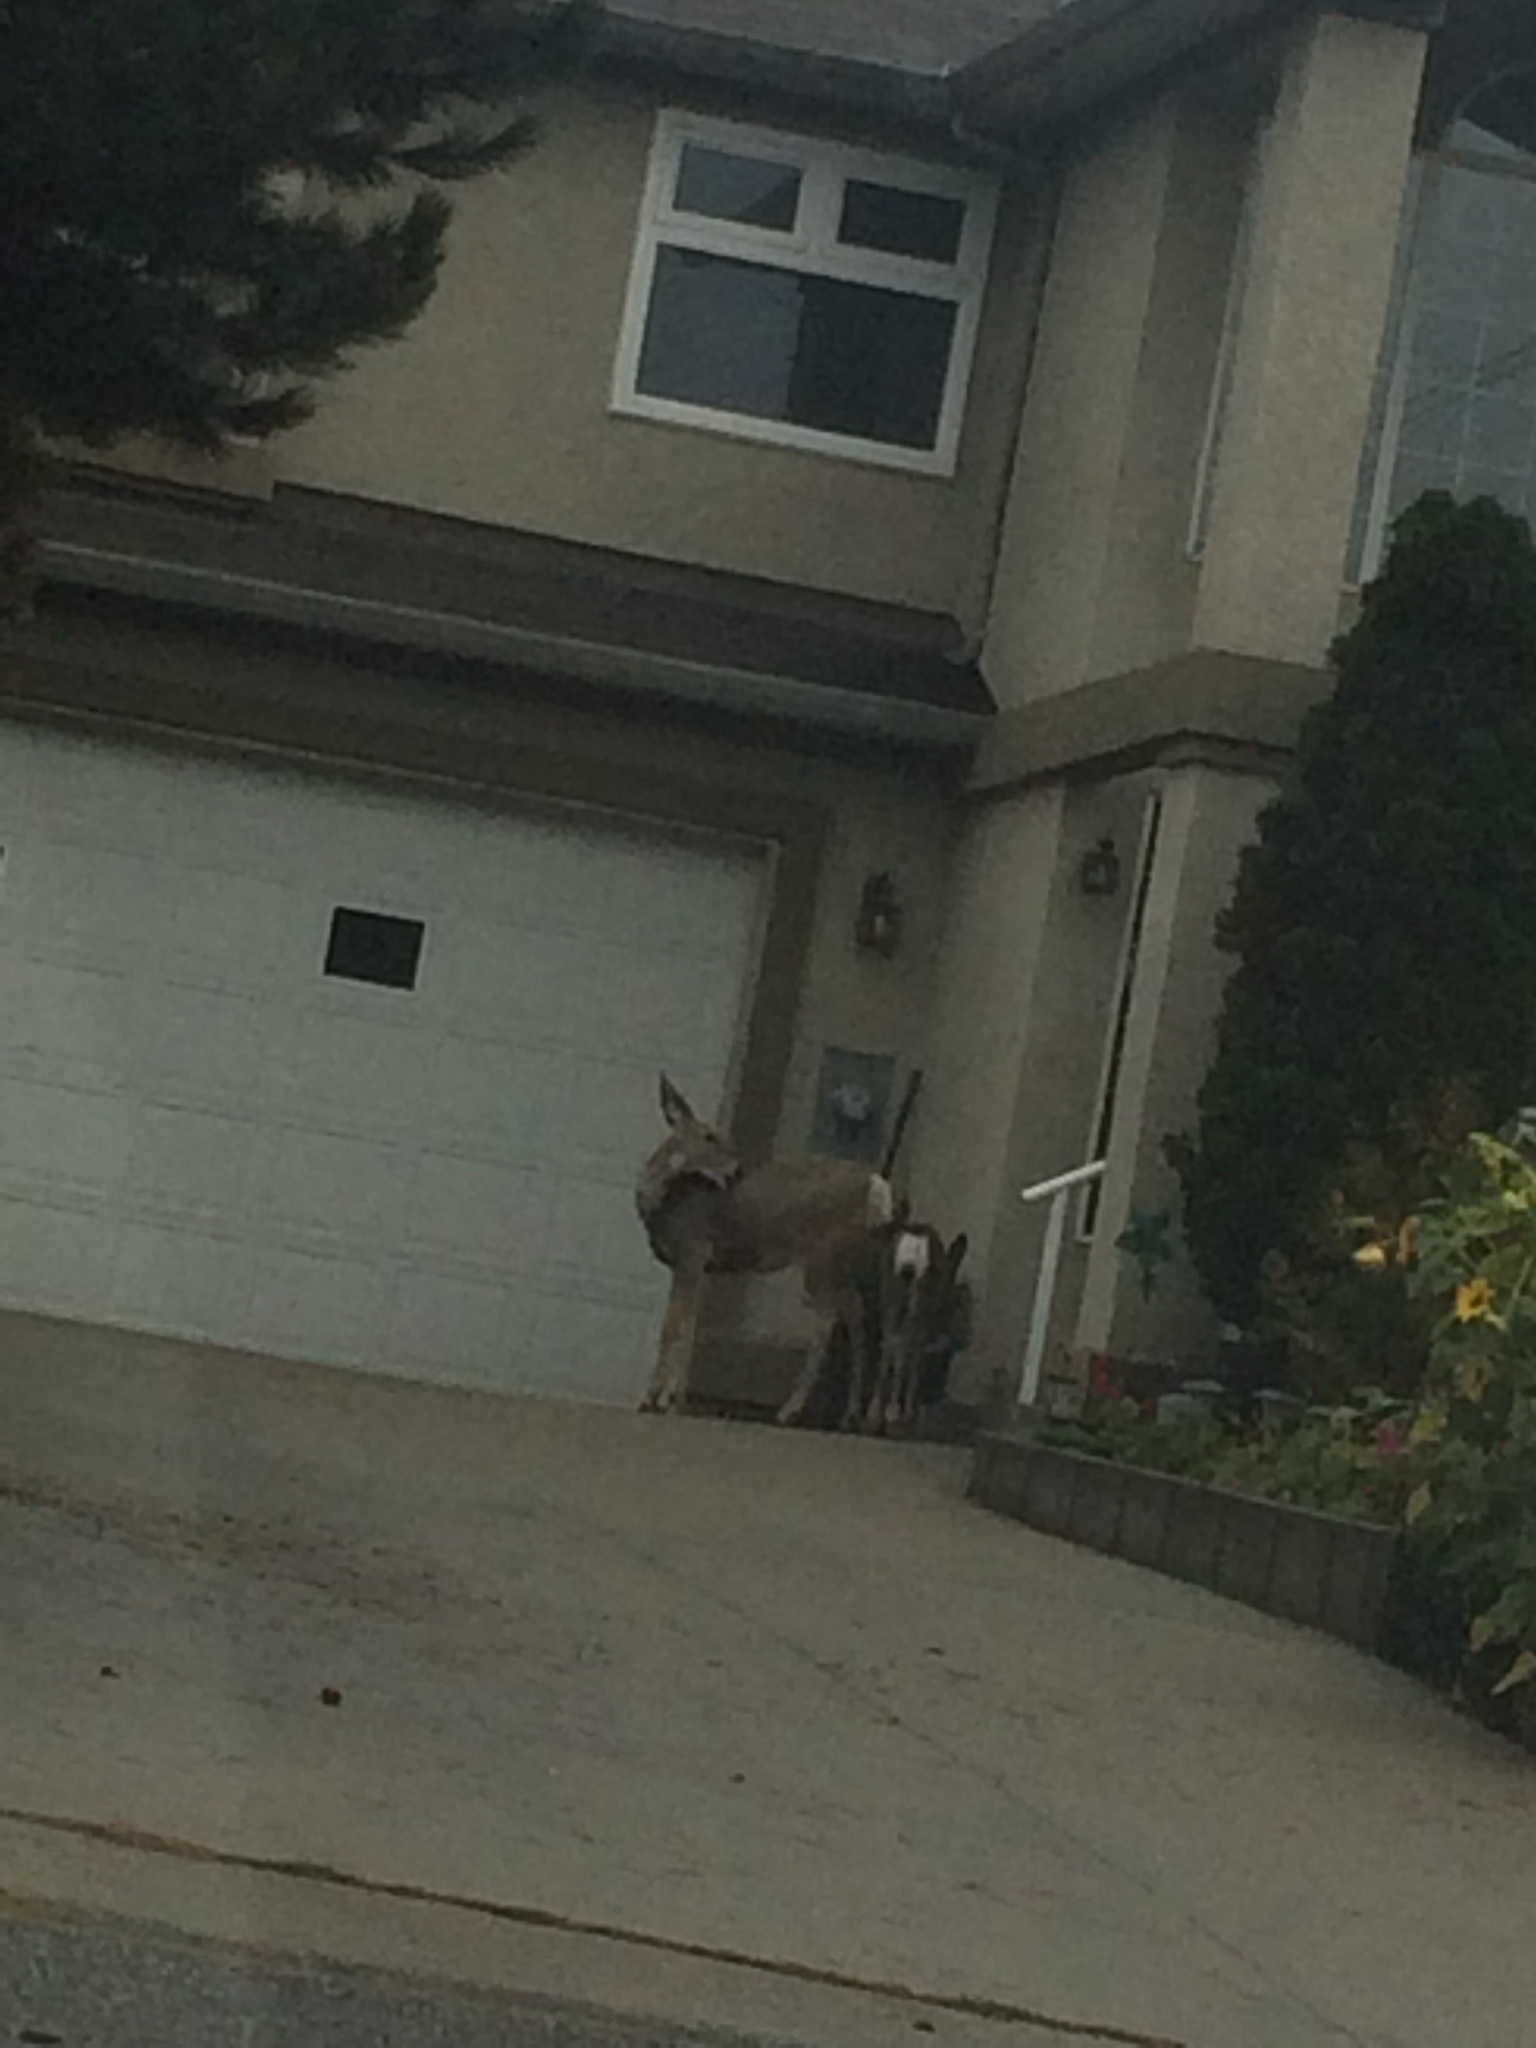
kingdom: Animalia
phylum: Chordata
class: Mammalia
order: Artiodactyla
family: Cervidae
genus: Odocoileus
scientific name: Odocoileus hemionus
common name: Mule deer
